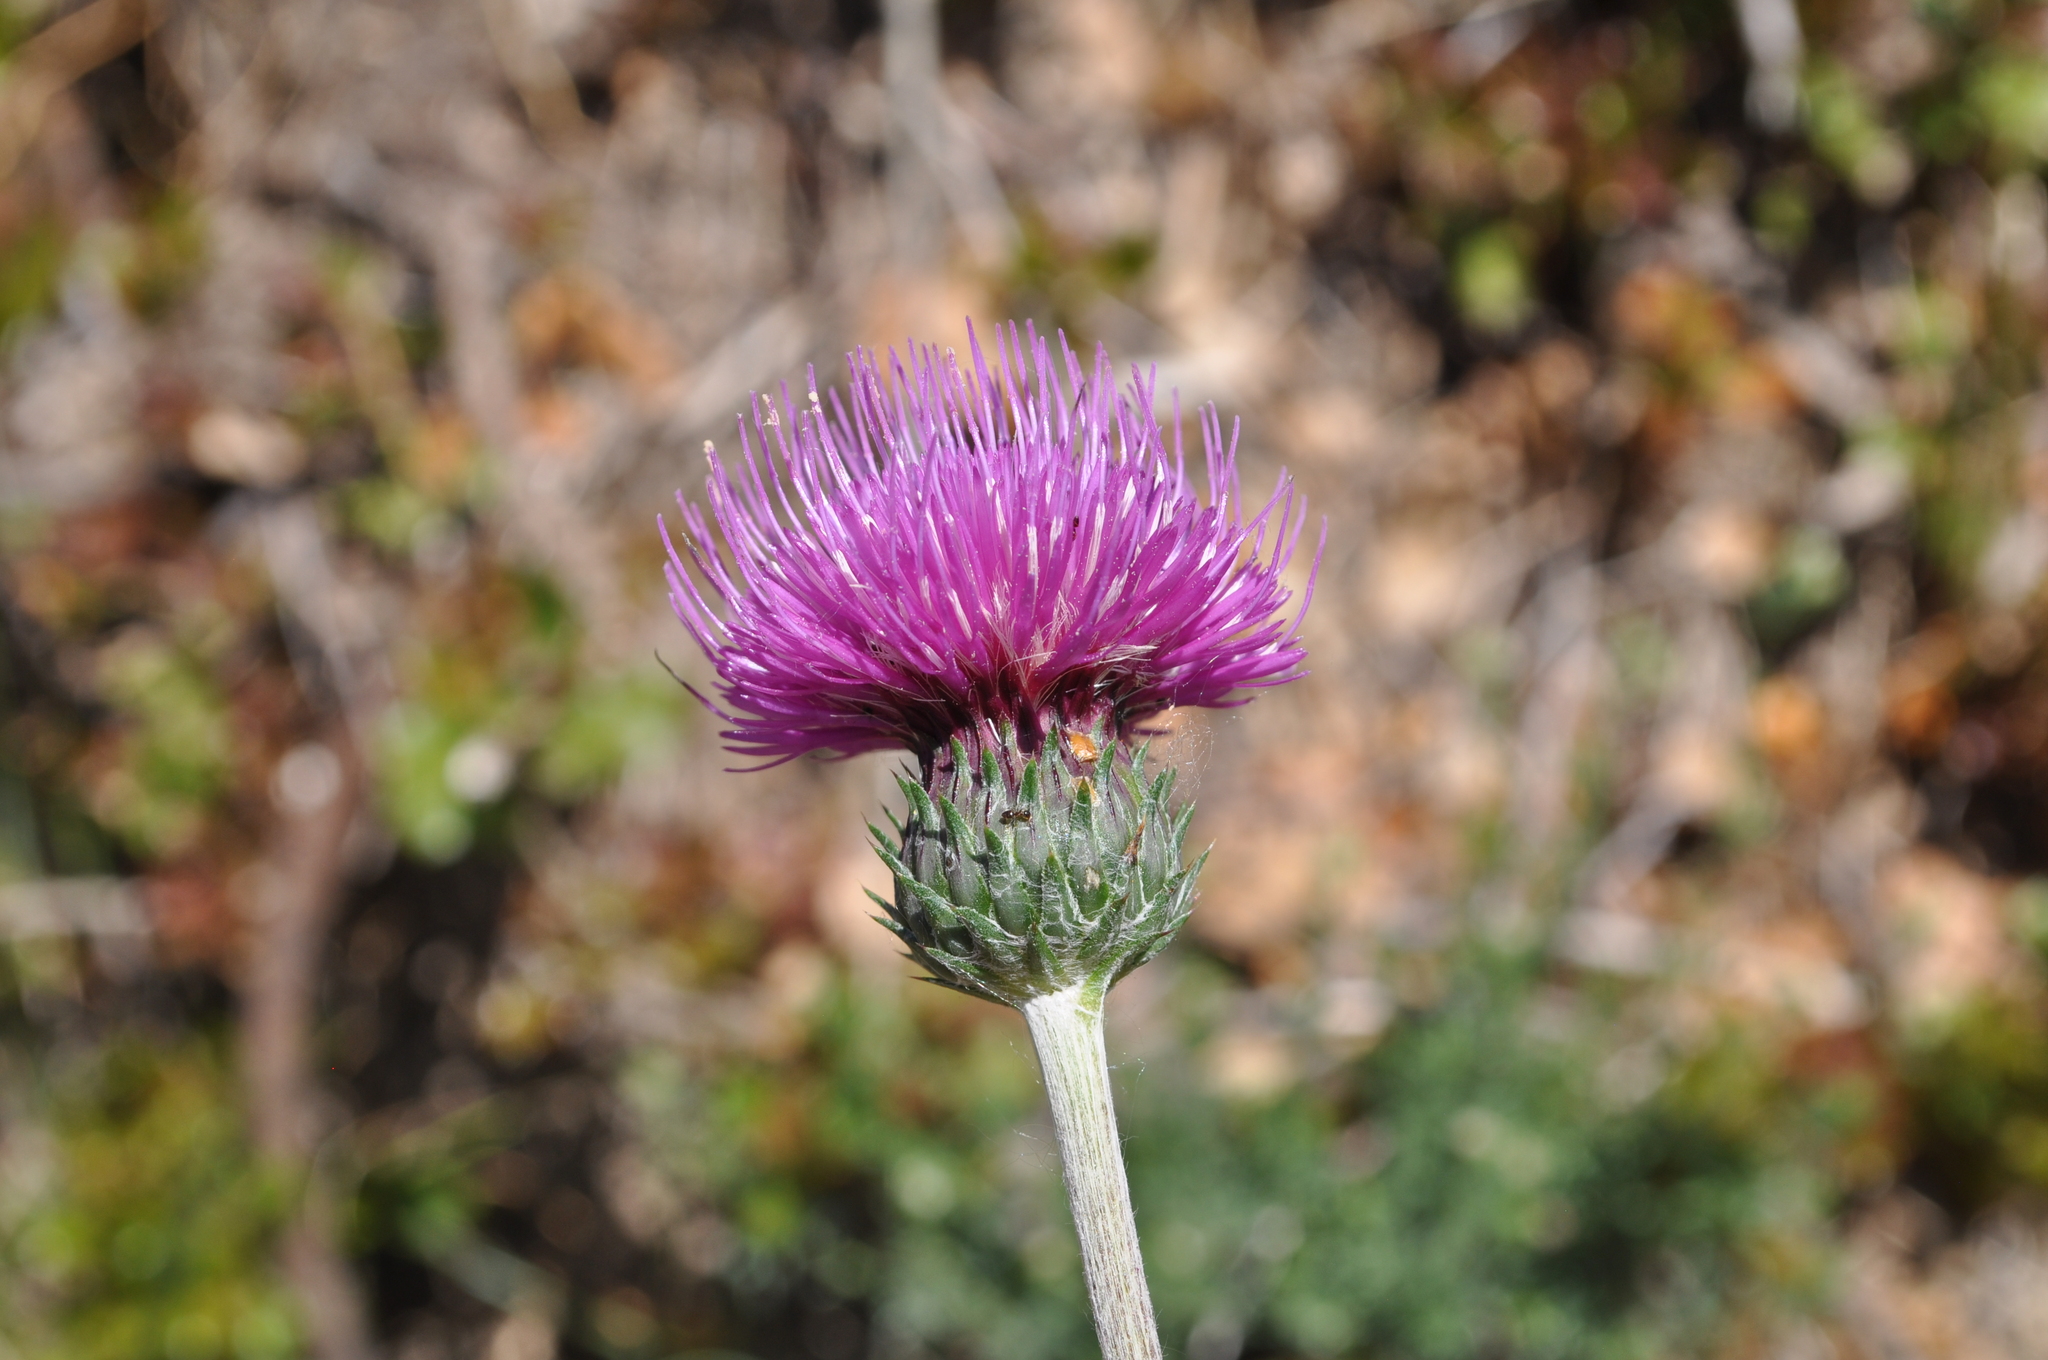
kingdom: Plantae
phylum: Tracheophyta
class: Magnoliopsida
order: Asterales
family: Asteraceae
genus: Carduus
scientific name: Carduus vivariensis
